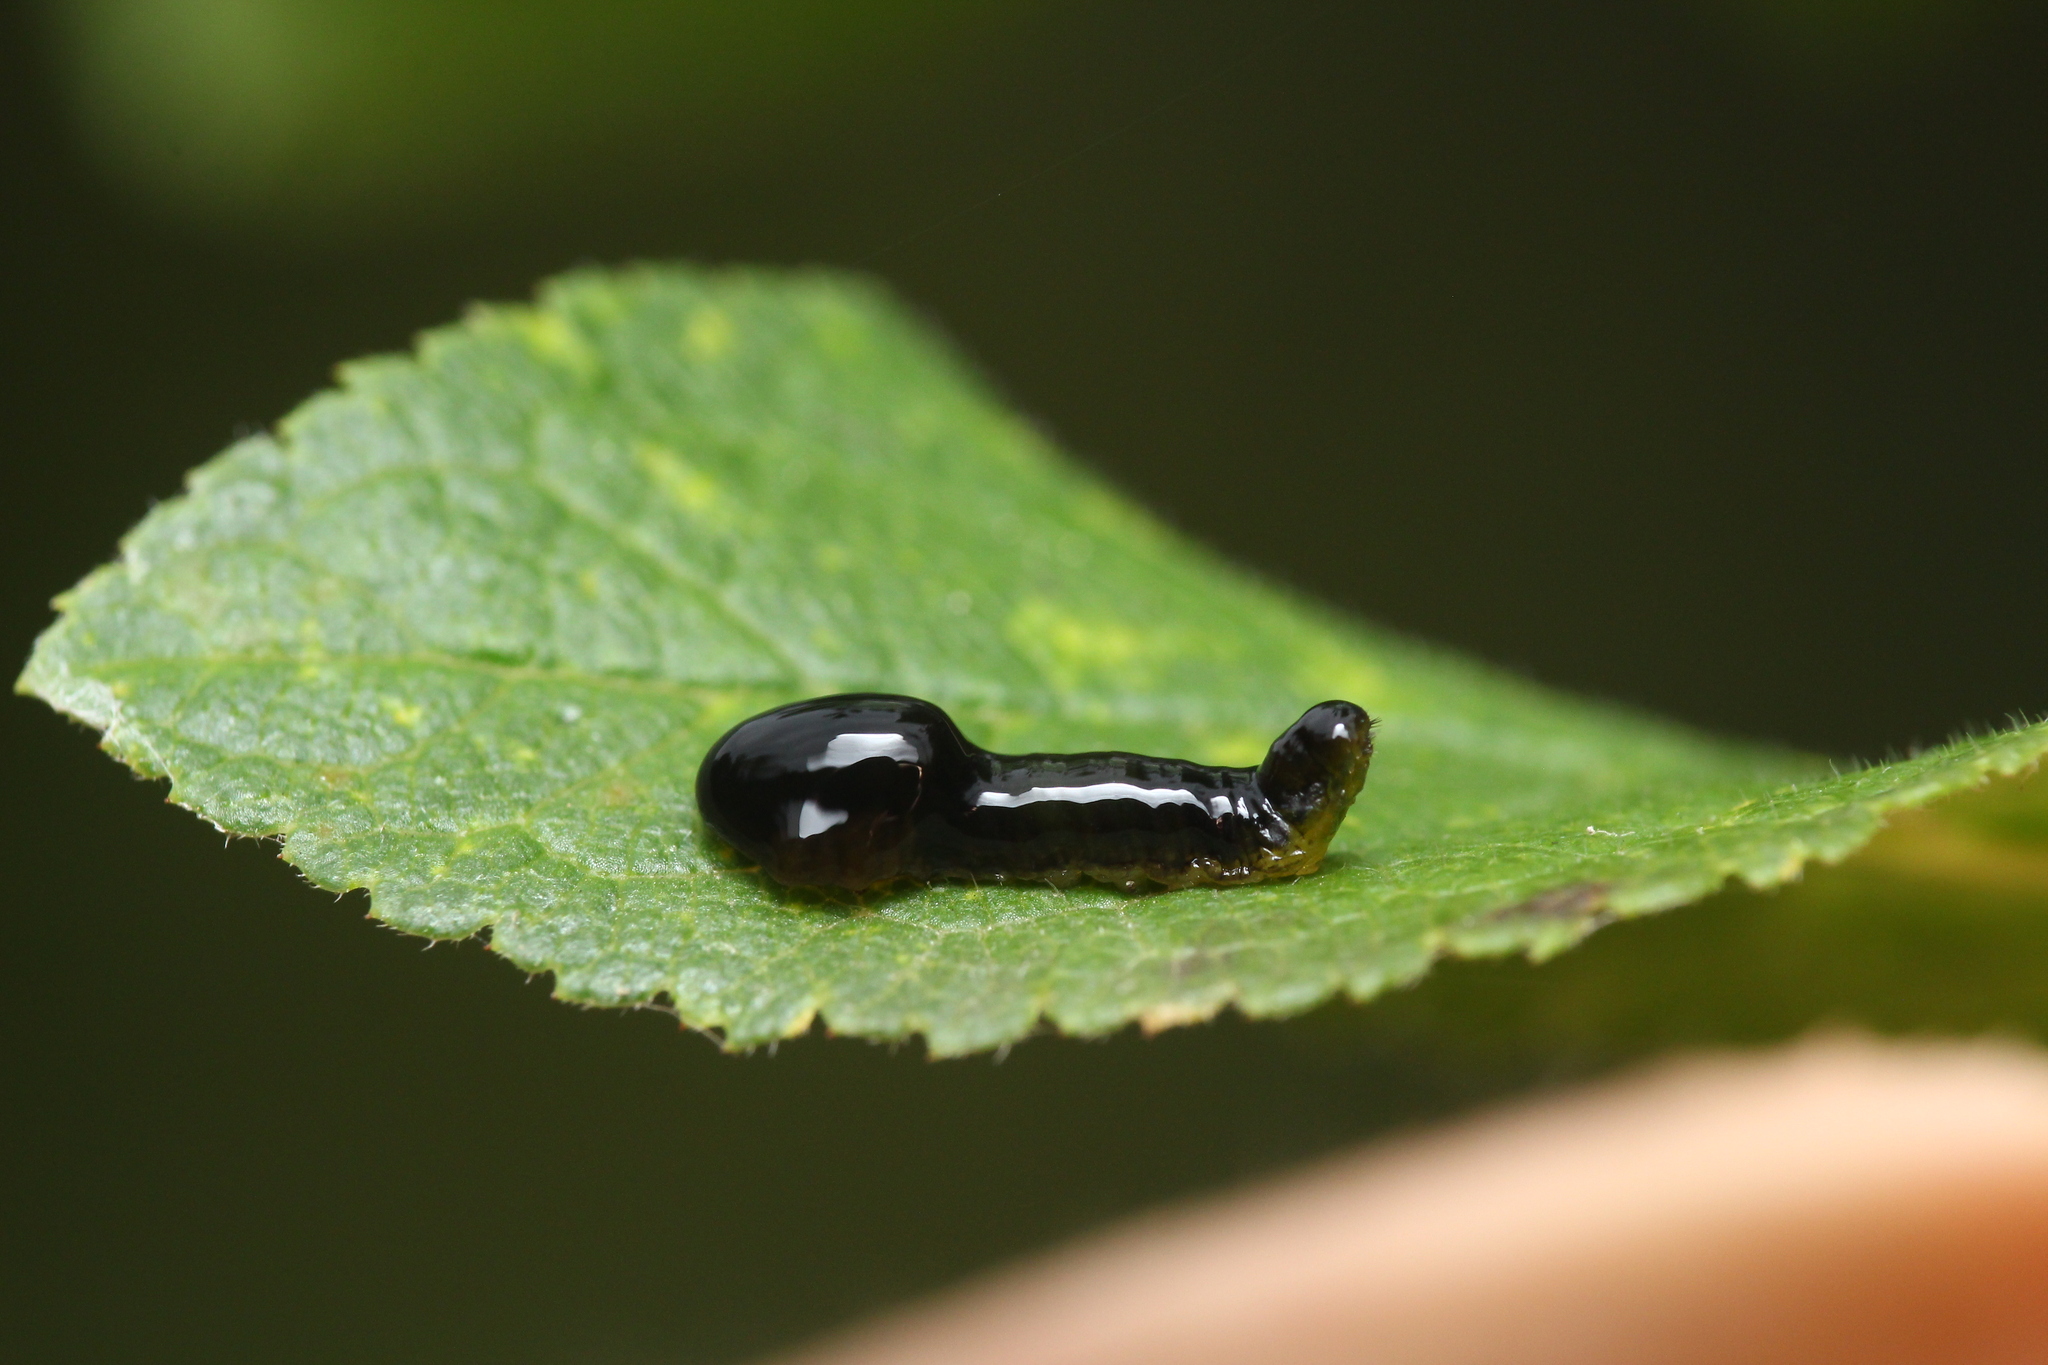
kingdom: Animalia
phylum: Arthropoda
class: Insecta
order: Hymenoptera
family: Tenthredinidae
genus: Caliroa
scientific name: Caliroa cerasi
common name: Pear sawfly
